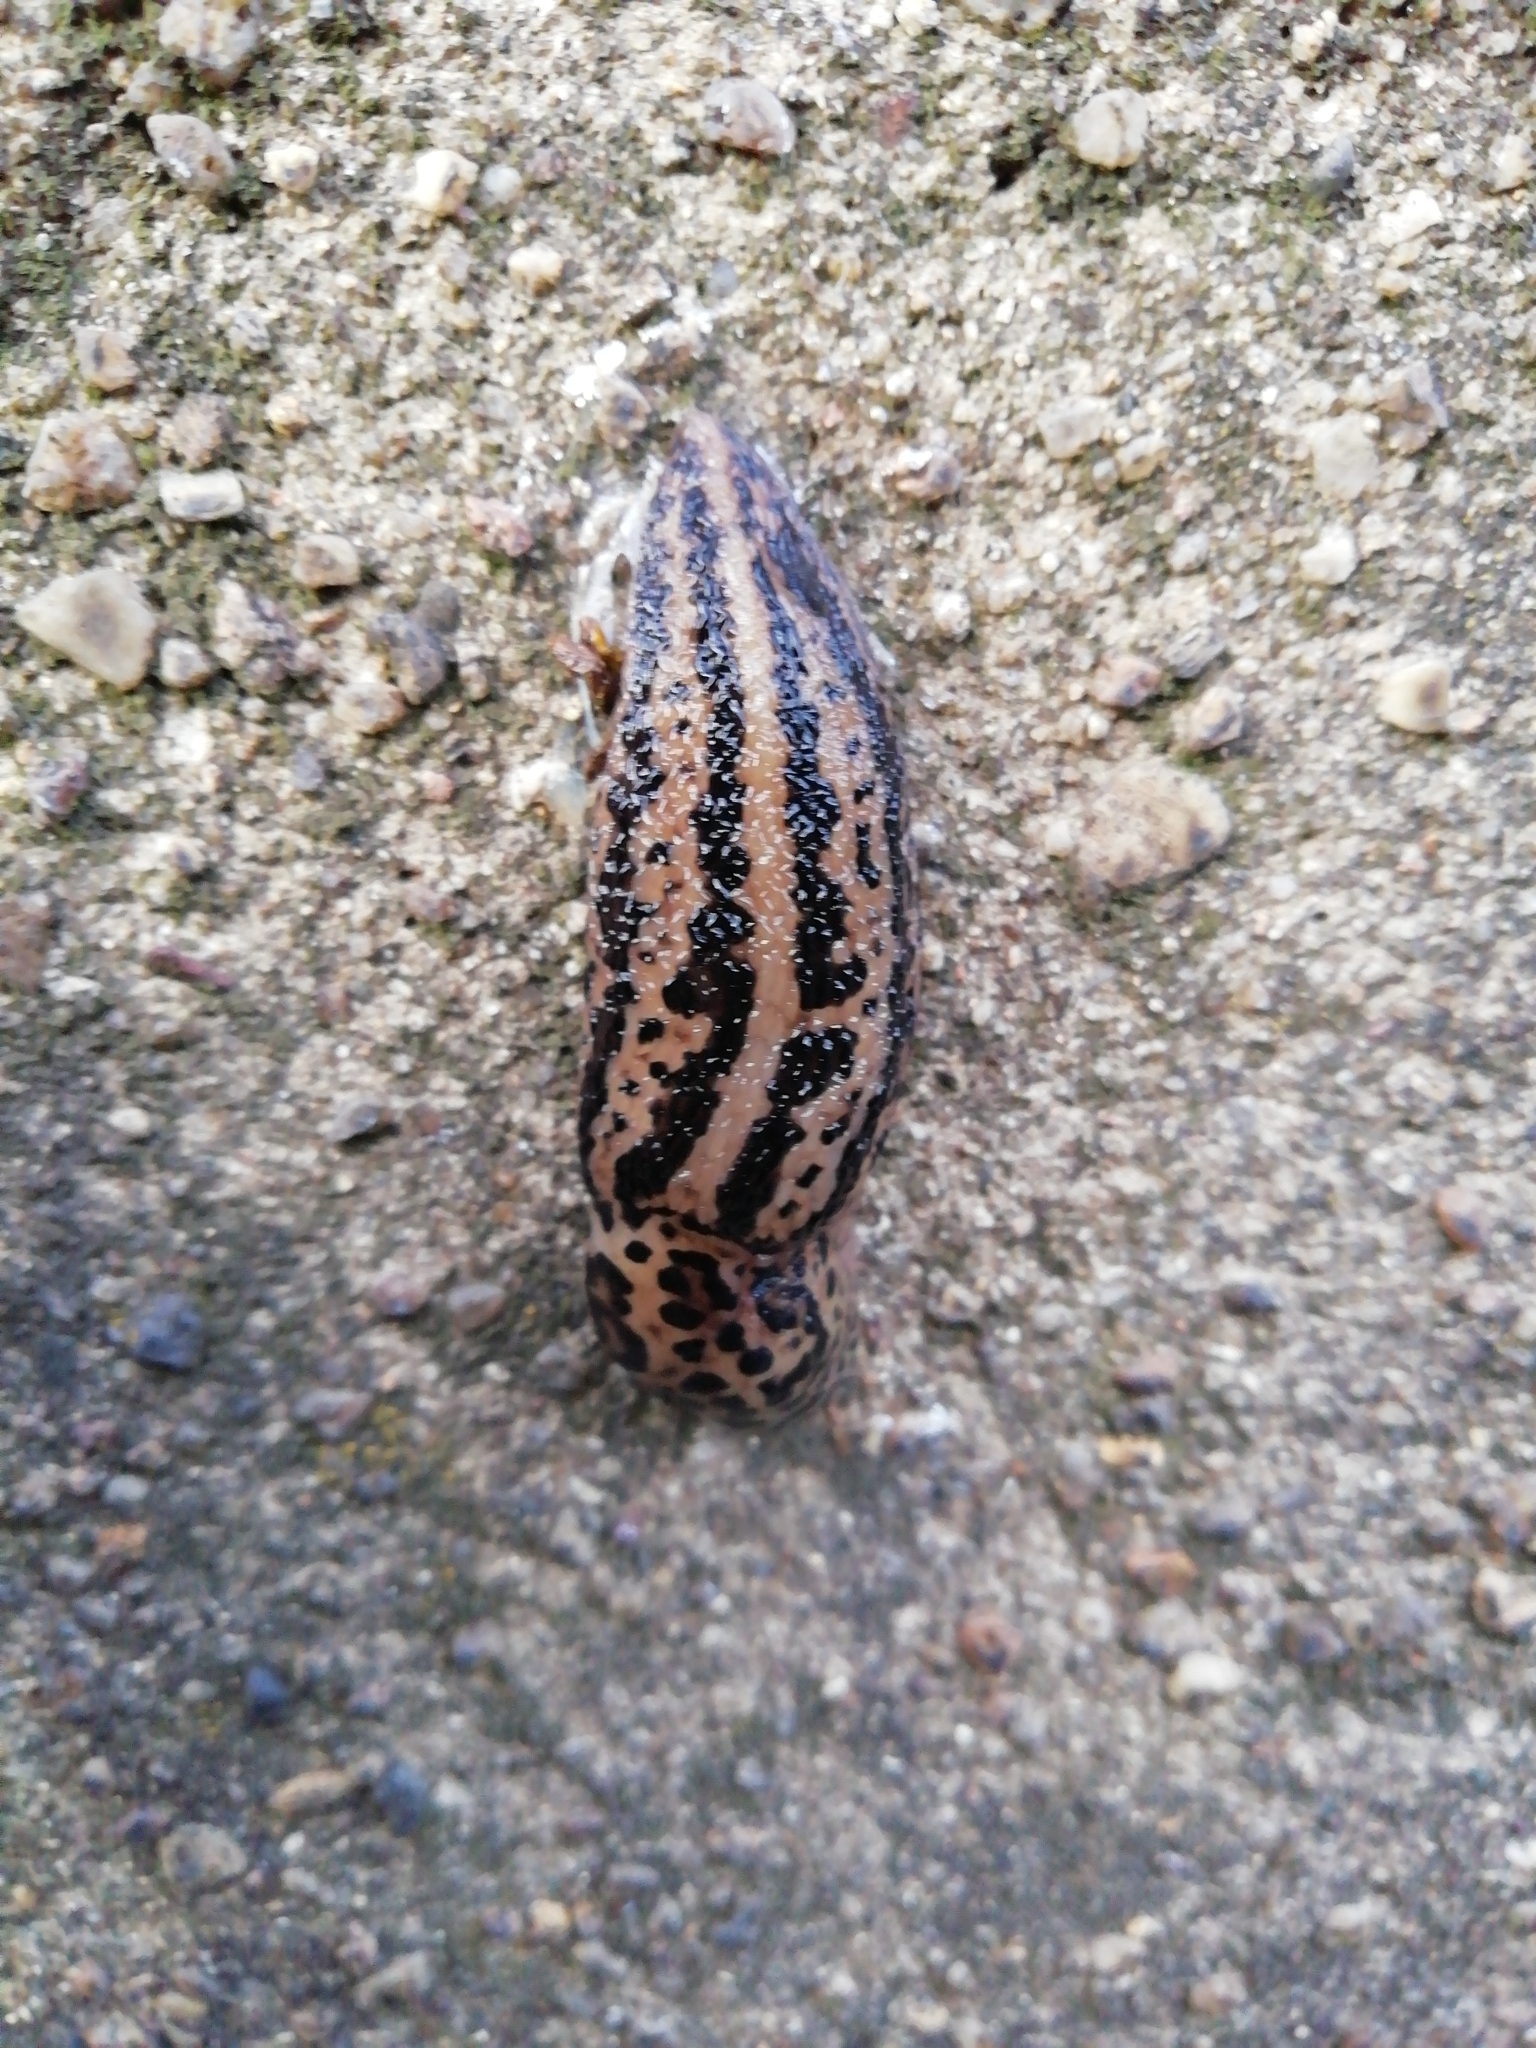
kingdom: Animalia
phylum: Mollusca
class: Gastropoda
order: Stylommatophora
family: Limacidae
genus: Limax
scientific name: Limax maximus
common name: Great grey slug
